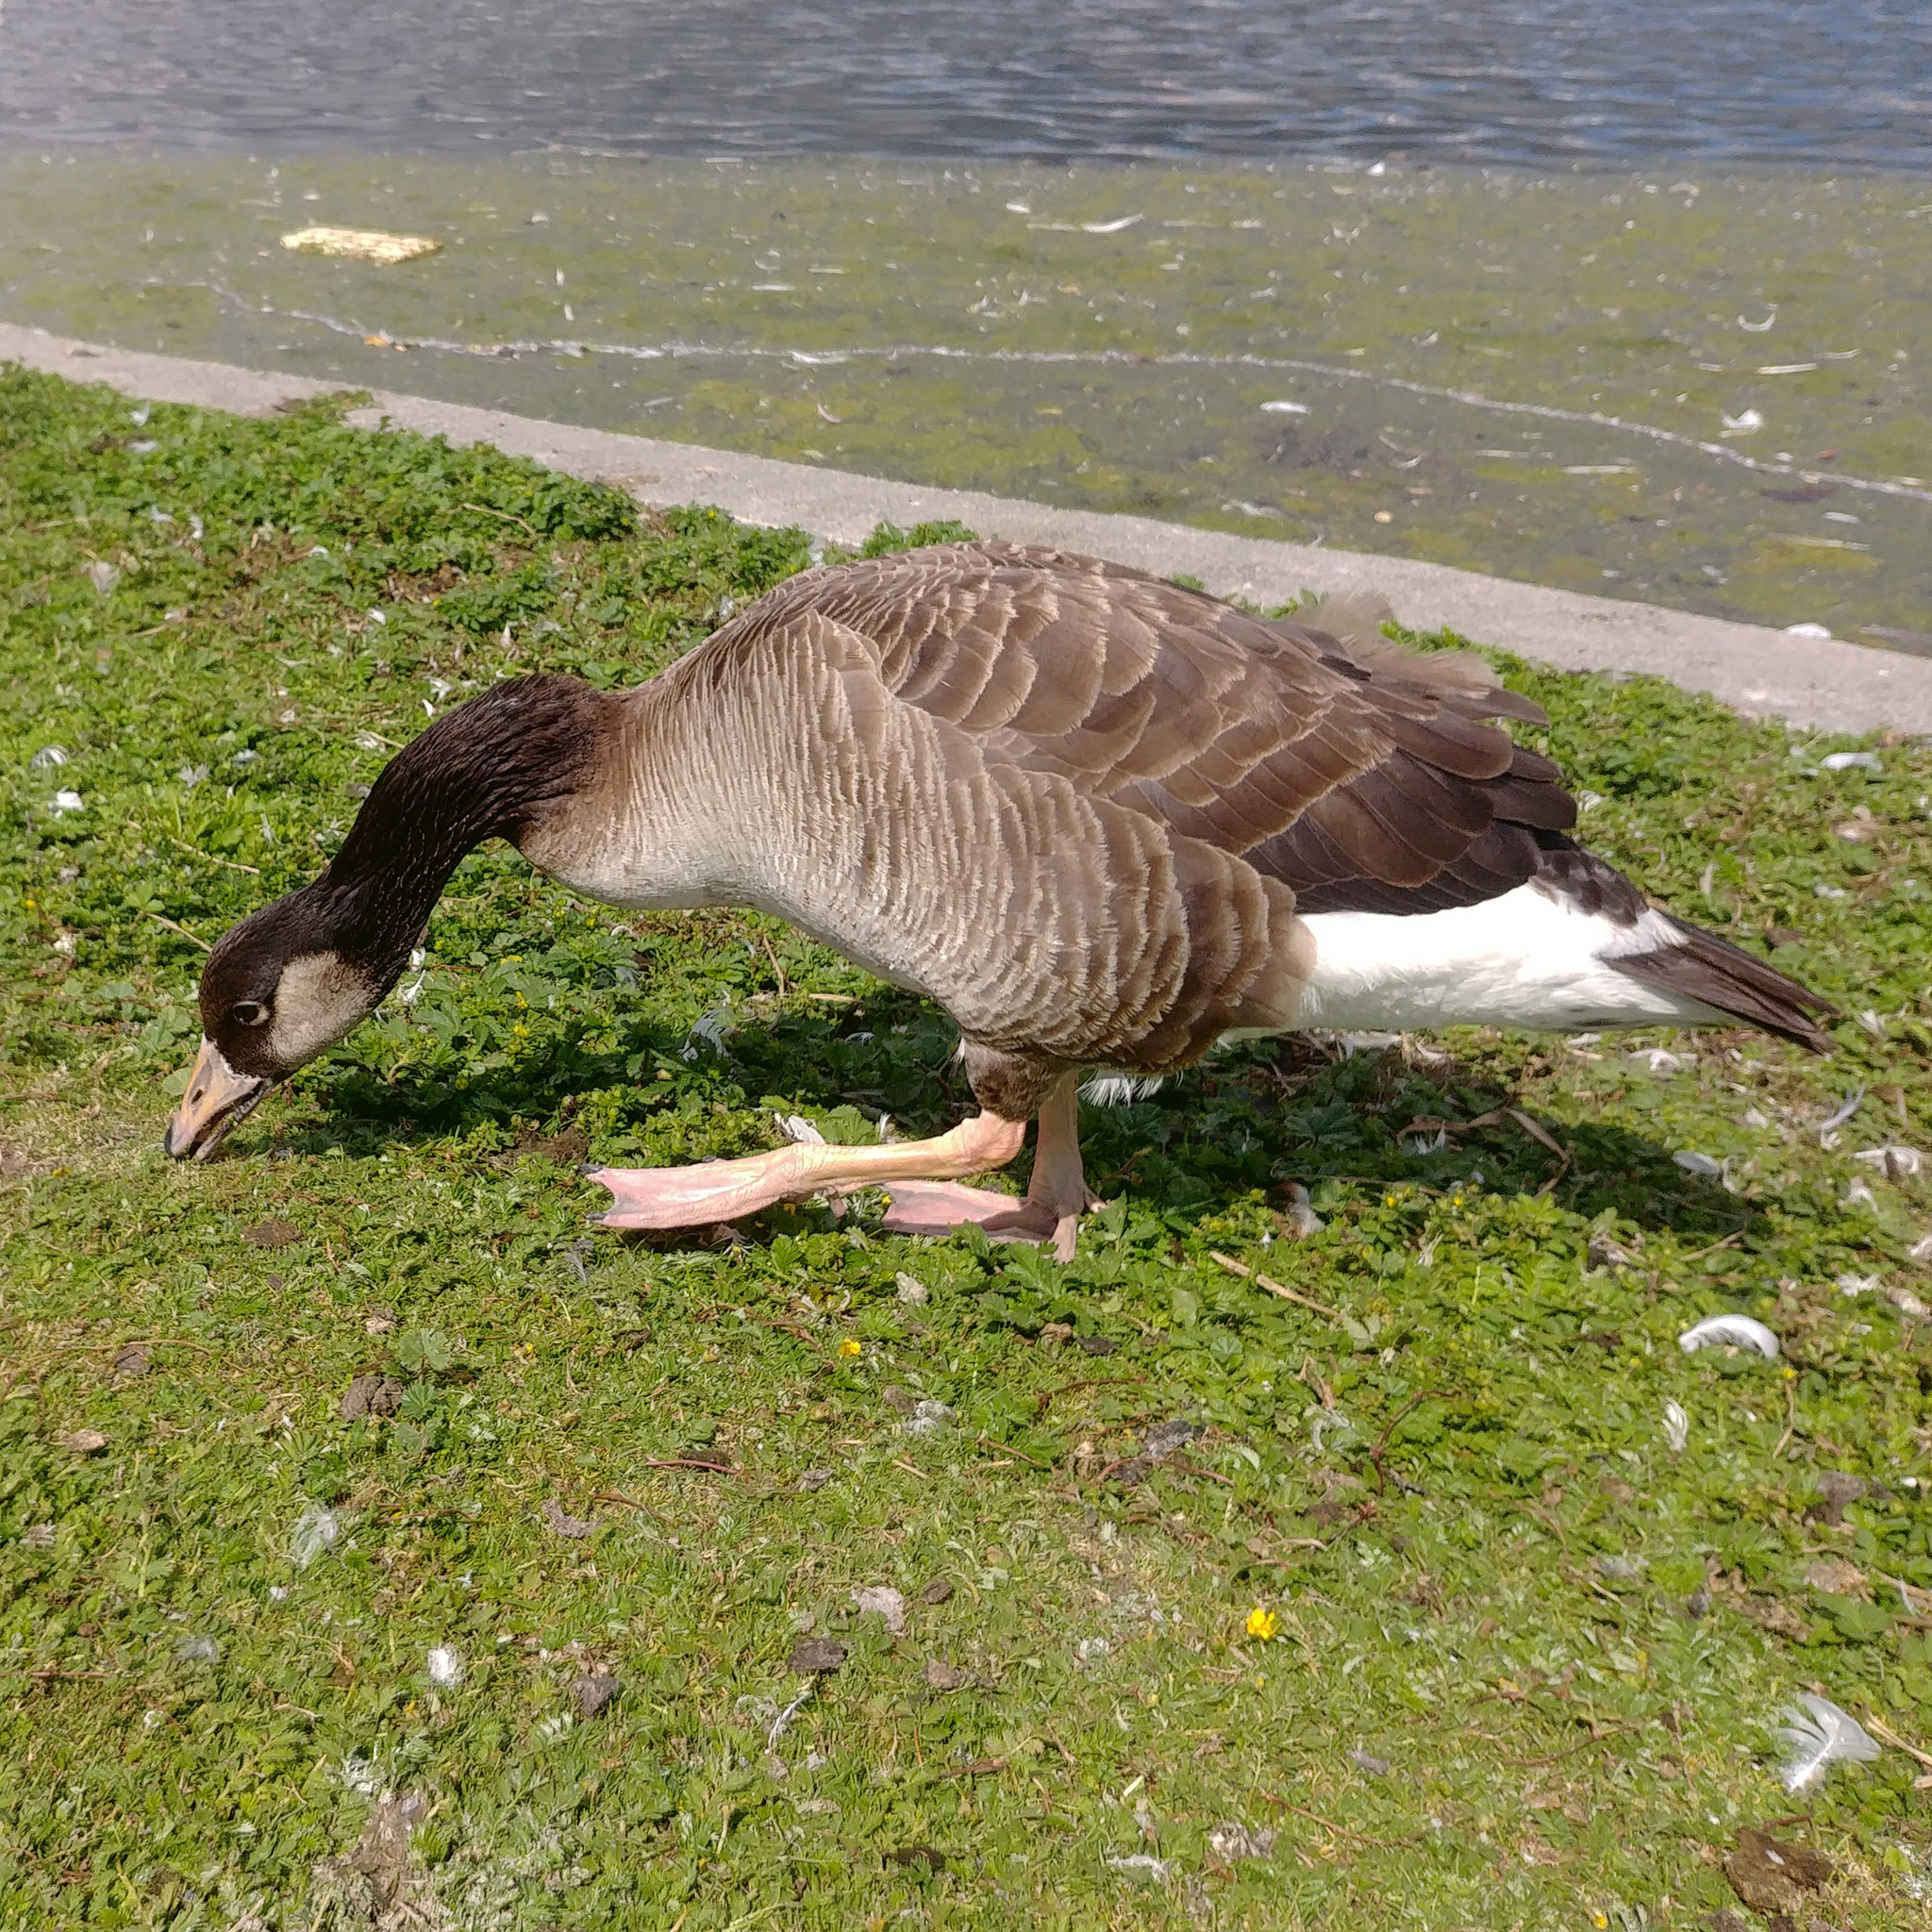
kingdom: Animalia
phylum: Chordata
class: Aves
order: Anseriformes
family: Anatidae
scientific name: Anatidae
